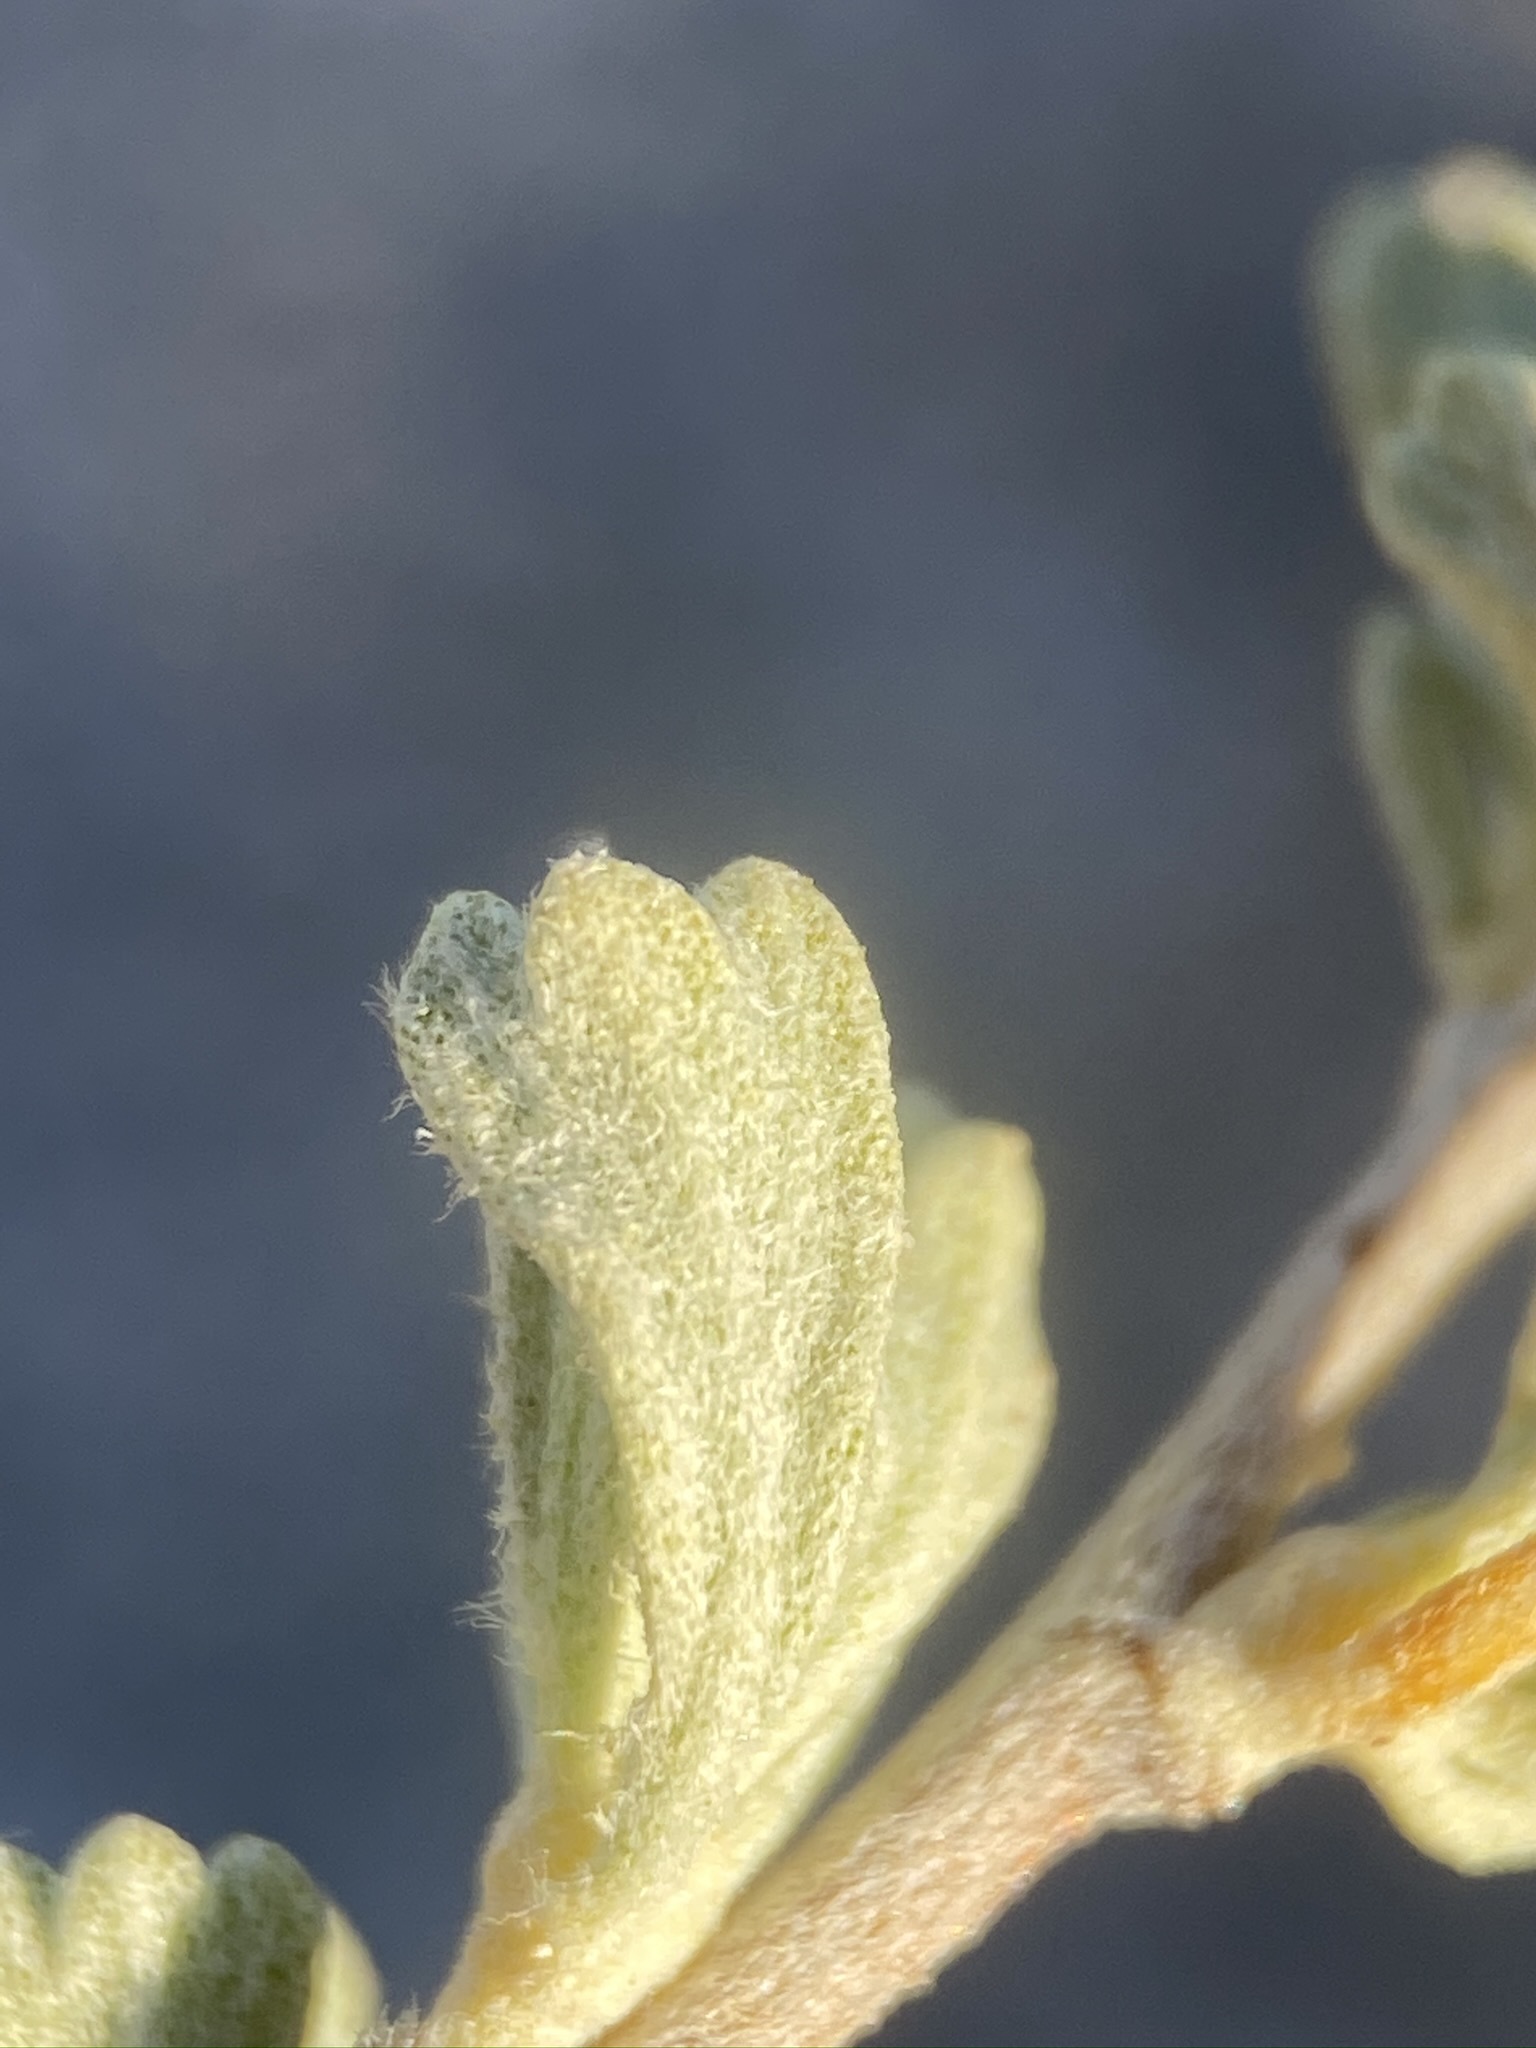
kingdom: Plantae
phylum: Tracheophyta
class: Magnoliopsida
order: Asterales
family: Asteraceae
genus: Artemisia
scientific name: Artemisia nova
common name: Black-sage
